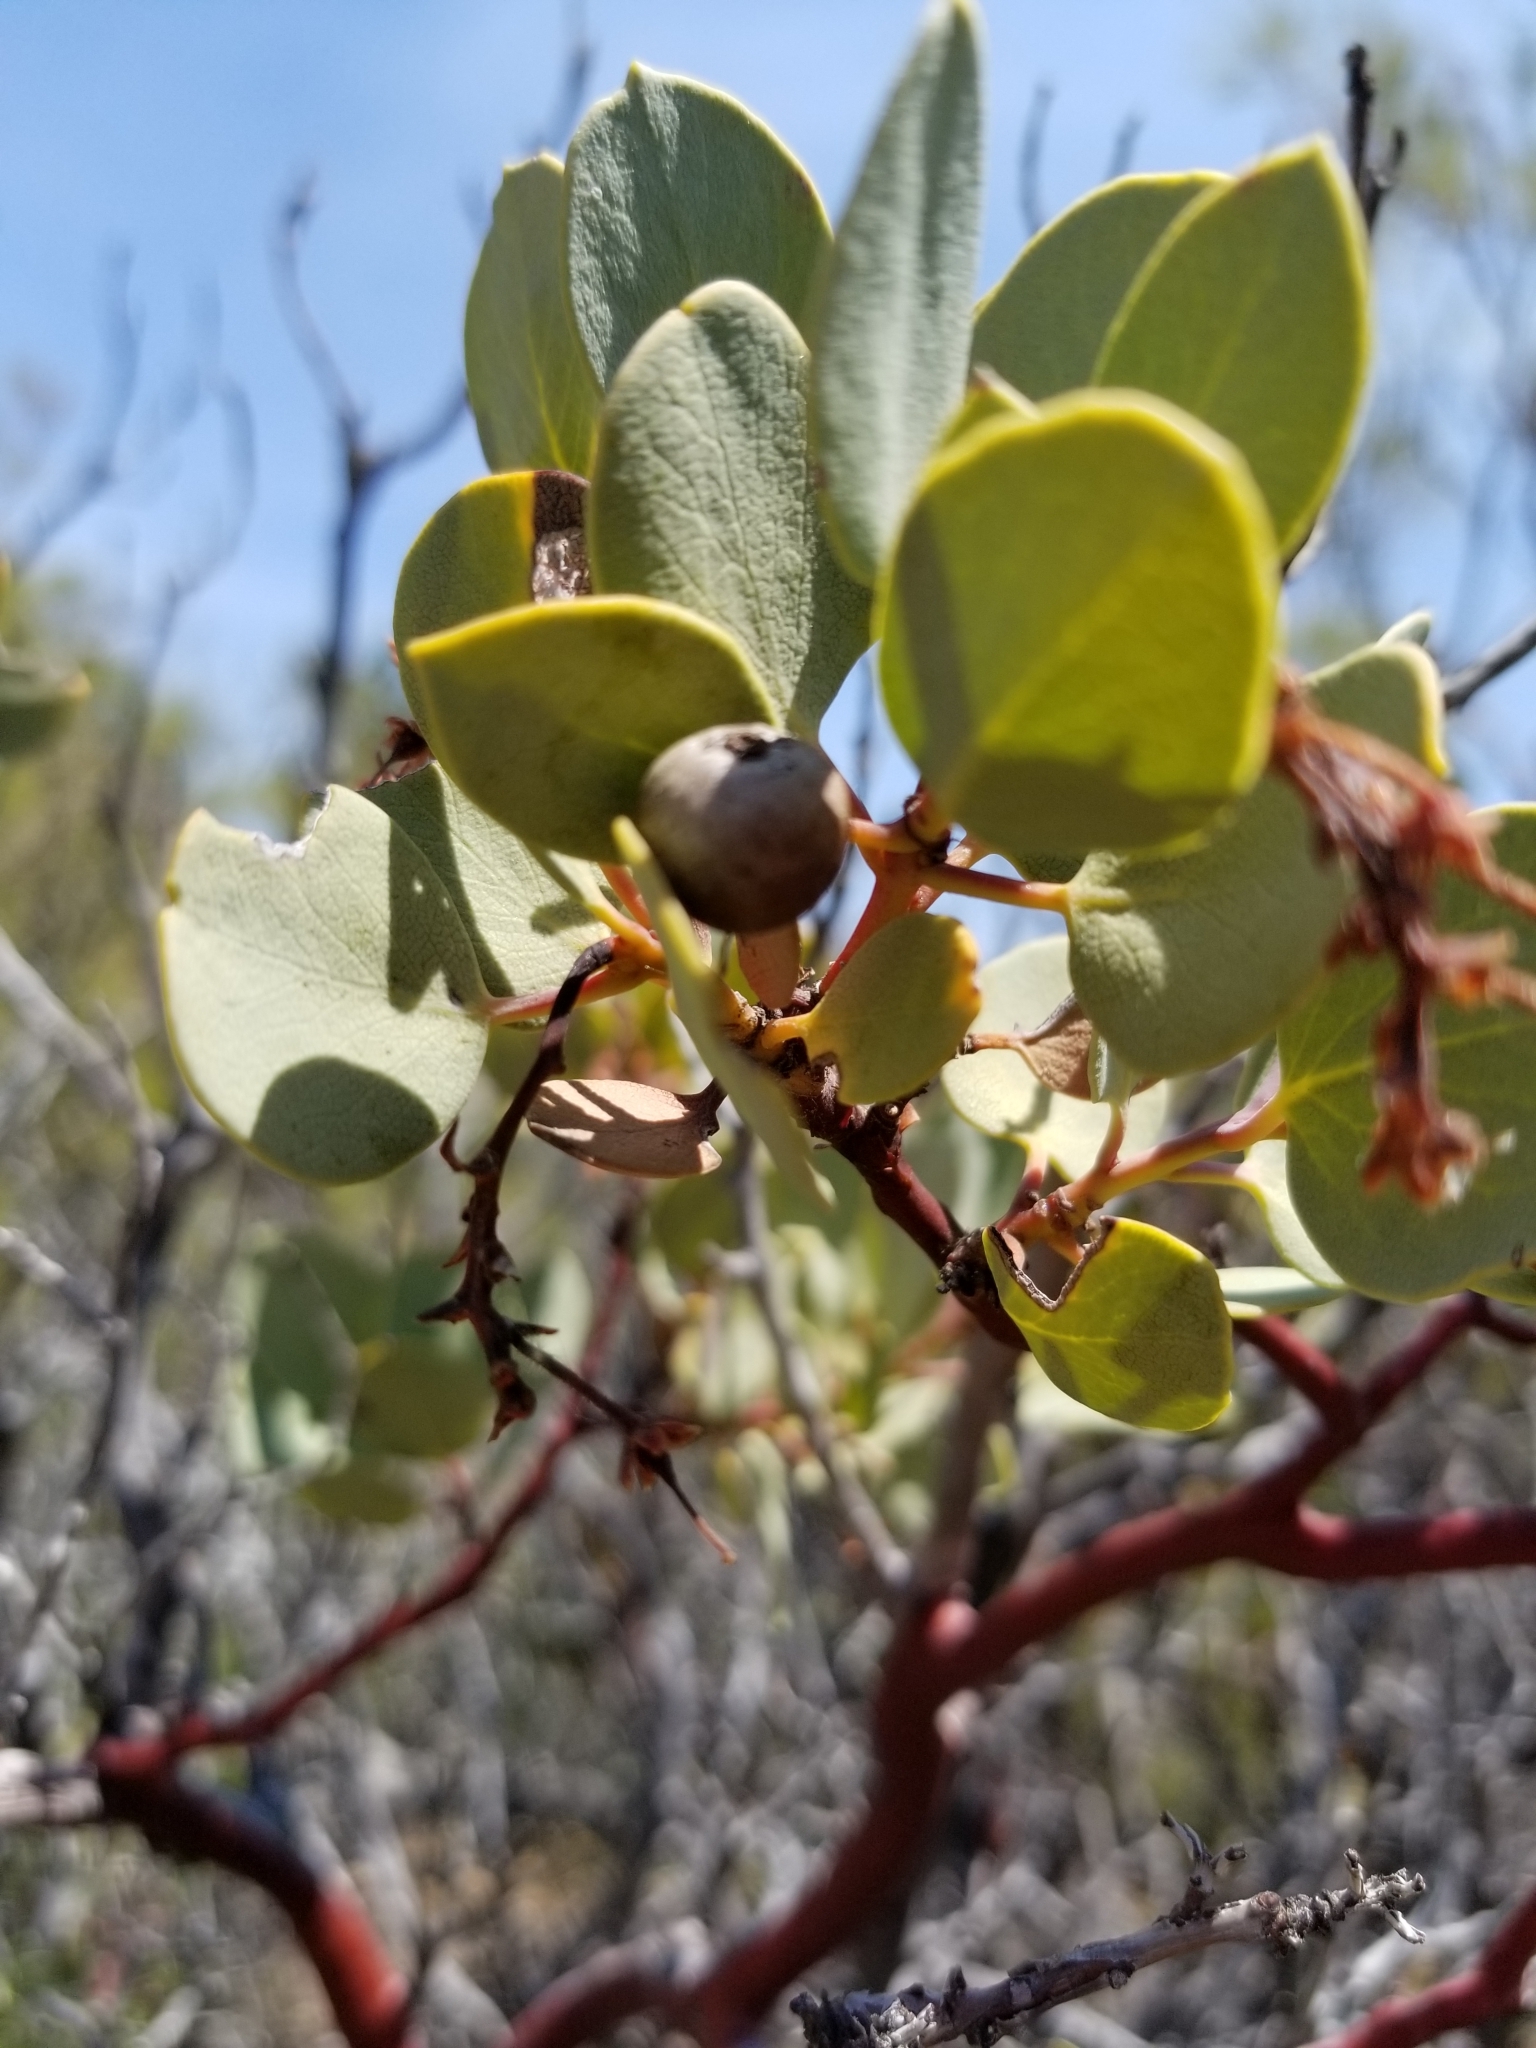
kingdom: Plantae
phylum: Tracheophyta
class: Magnoliopsida
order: Ericales
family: Ericaceae
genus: Arctostaphylos
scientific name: Arctostaphylos glauca
